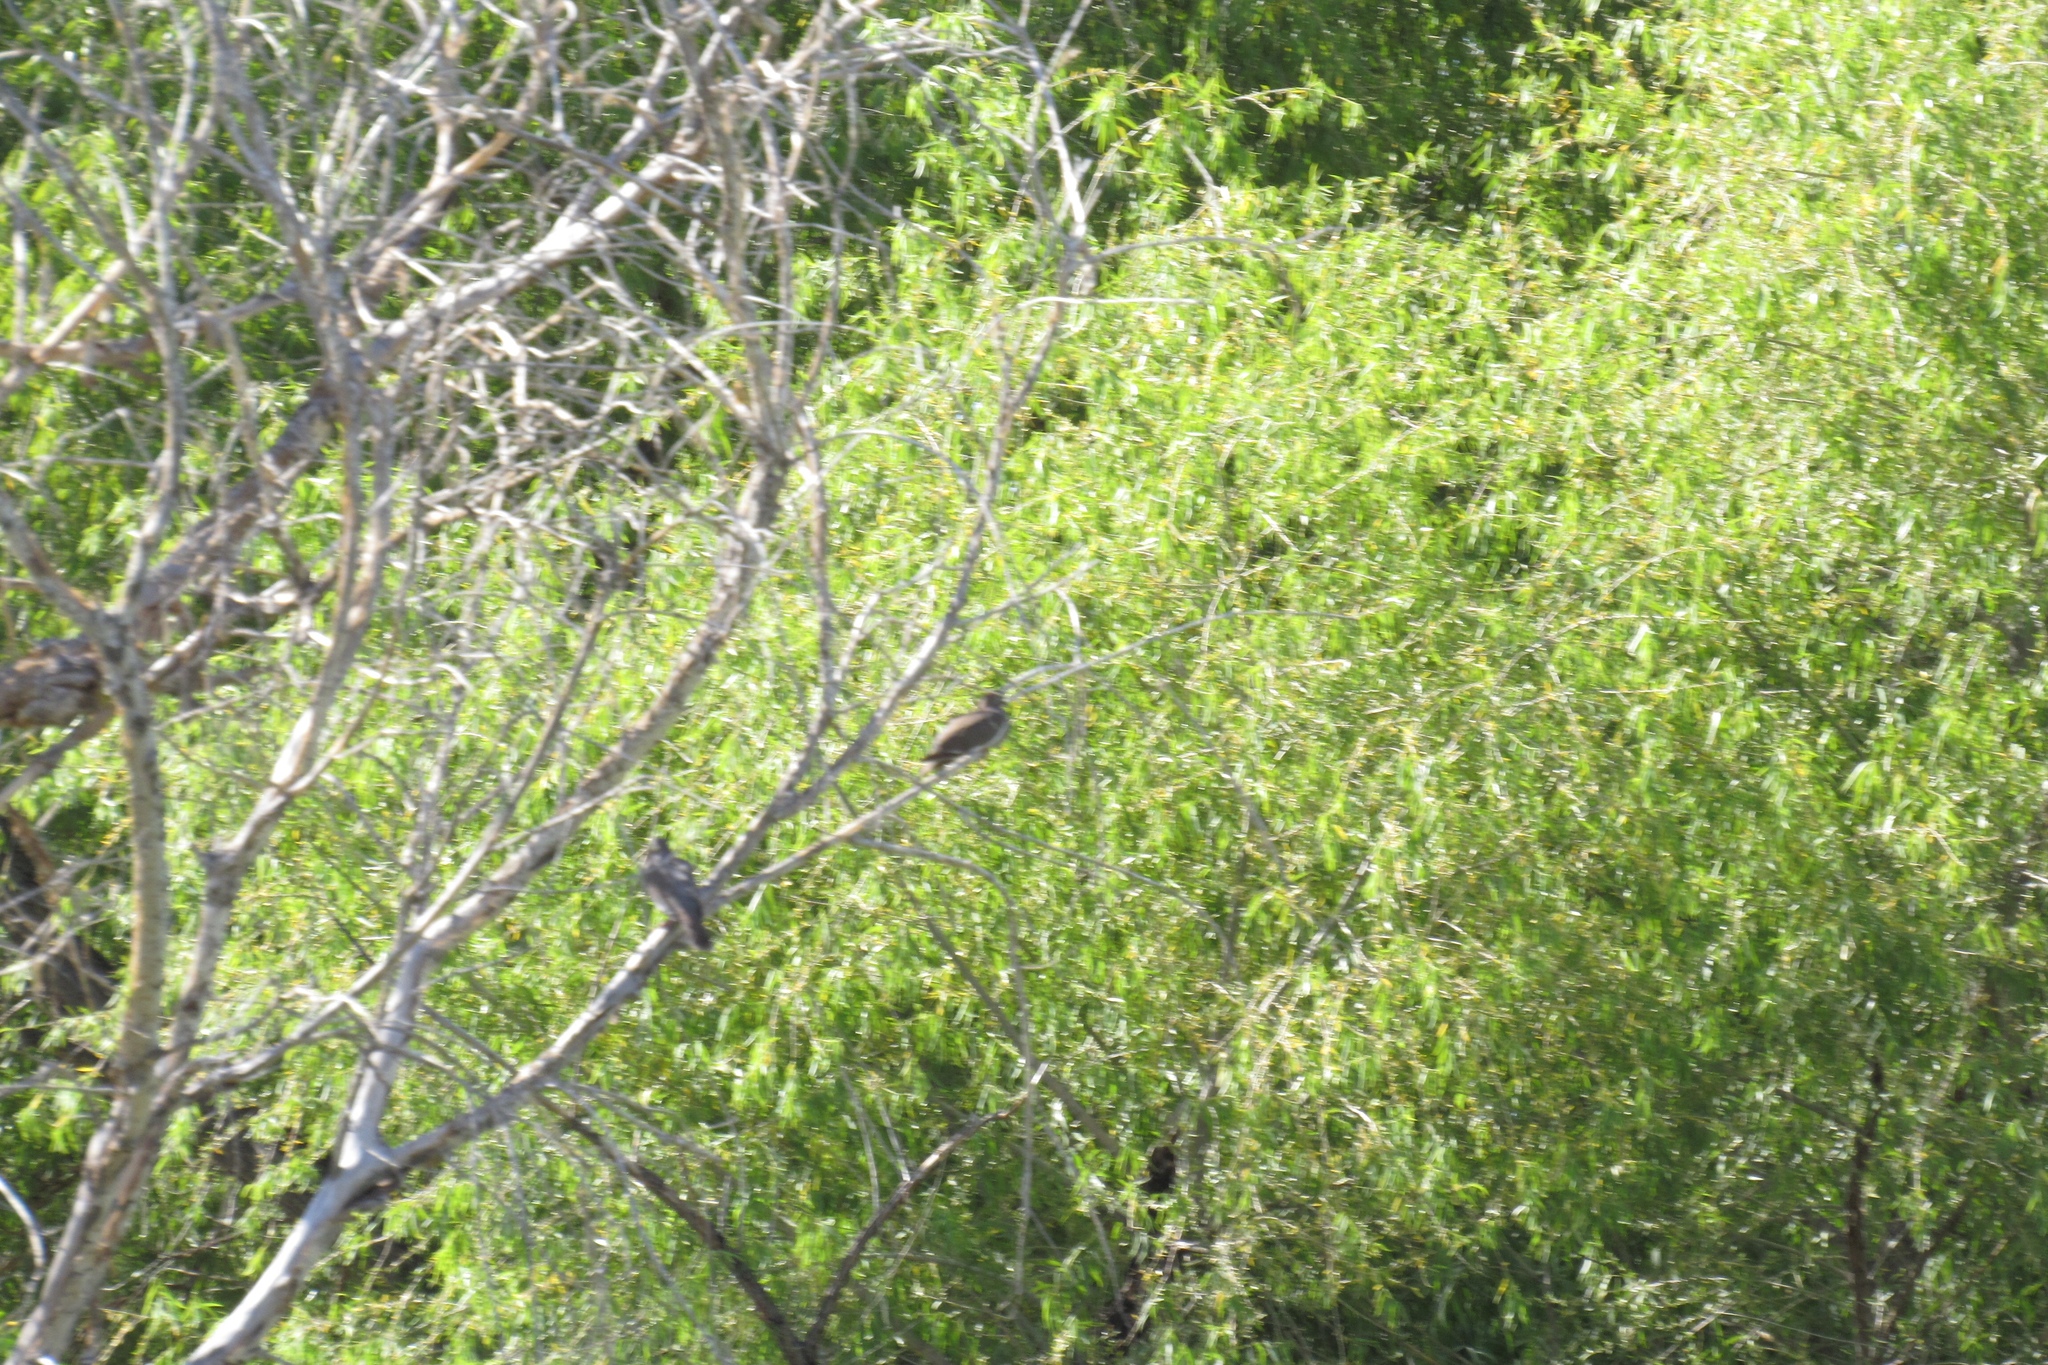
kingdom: Animalia
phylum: Chordata
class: Aves
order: Columbiformes
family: Columbidae
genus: Zenaida
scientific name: Zenaida asiatica
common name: White-winged dove
